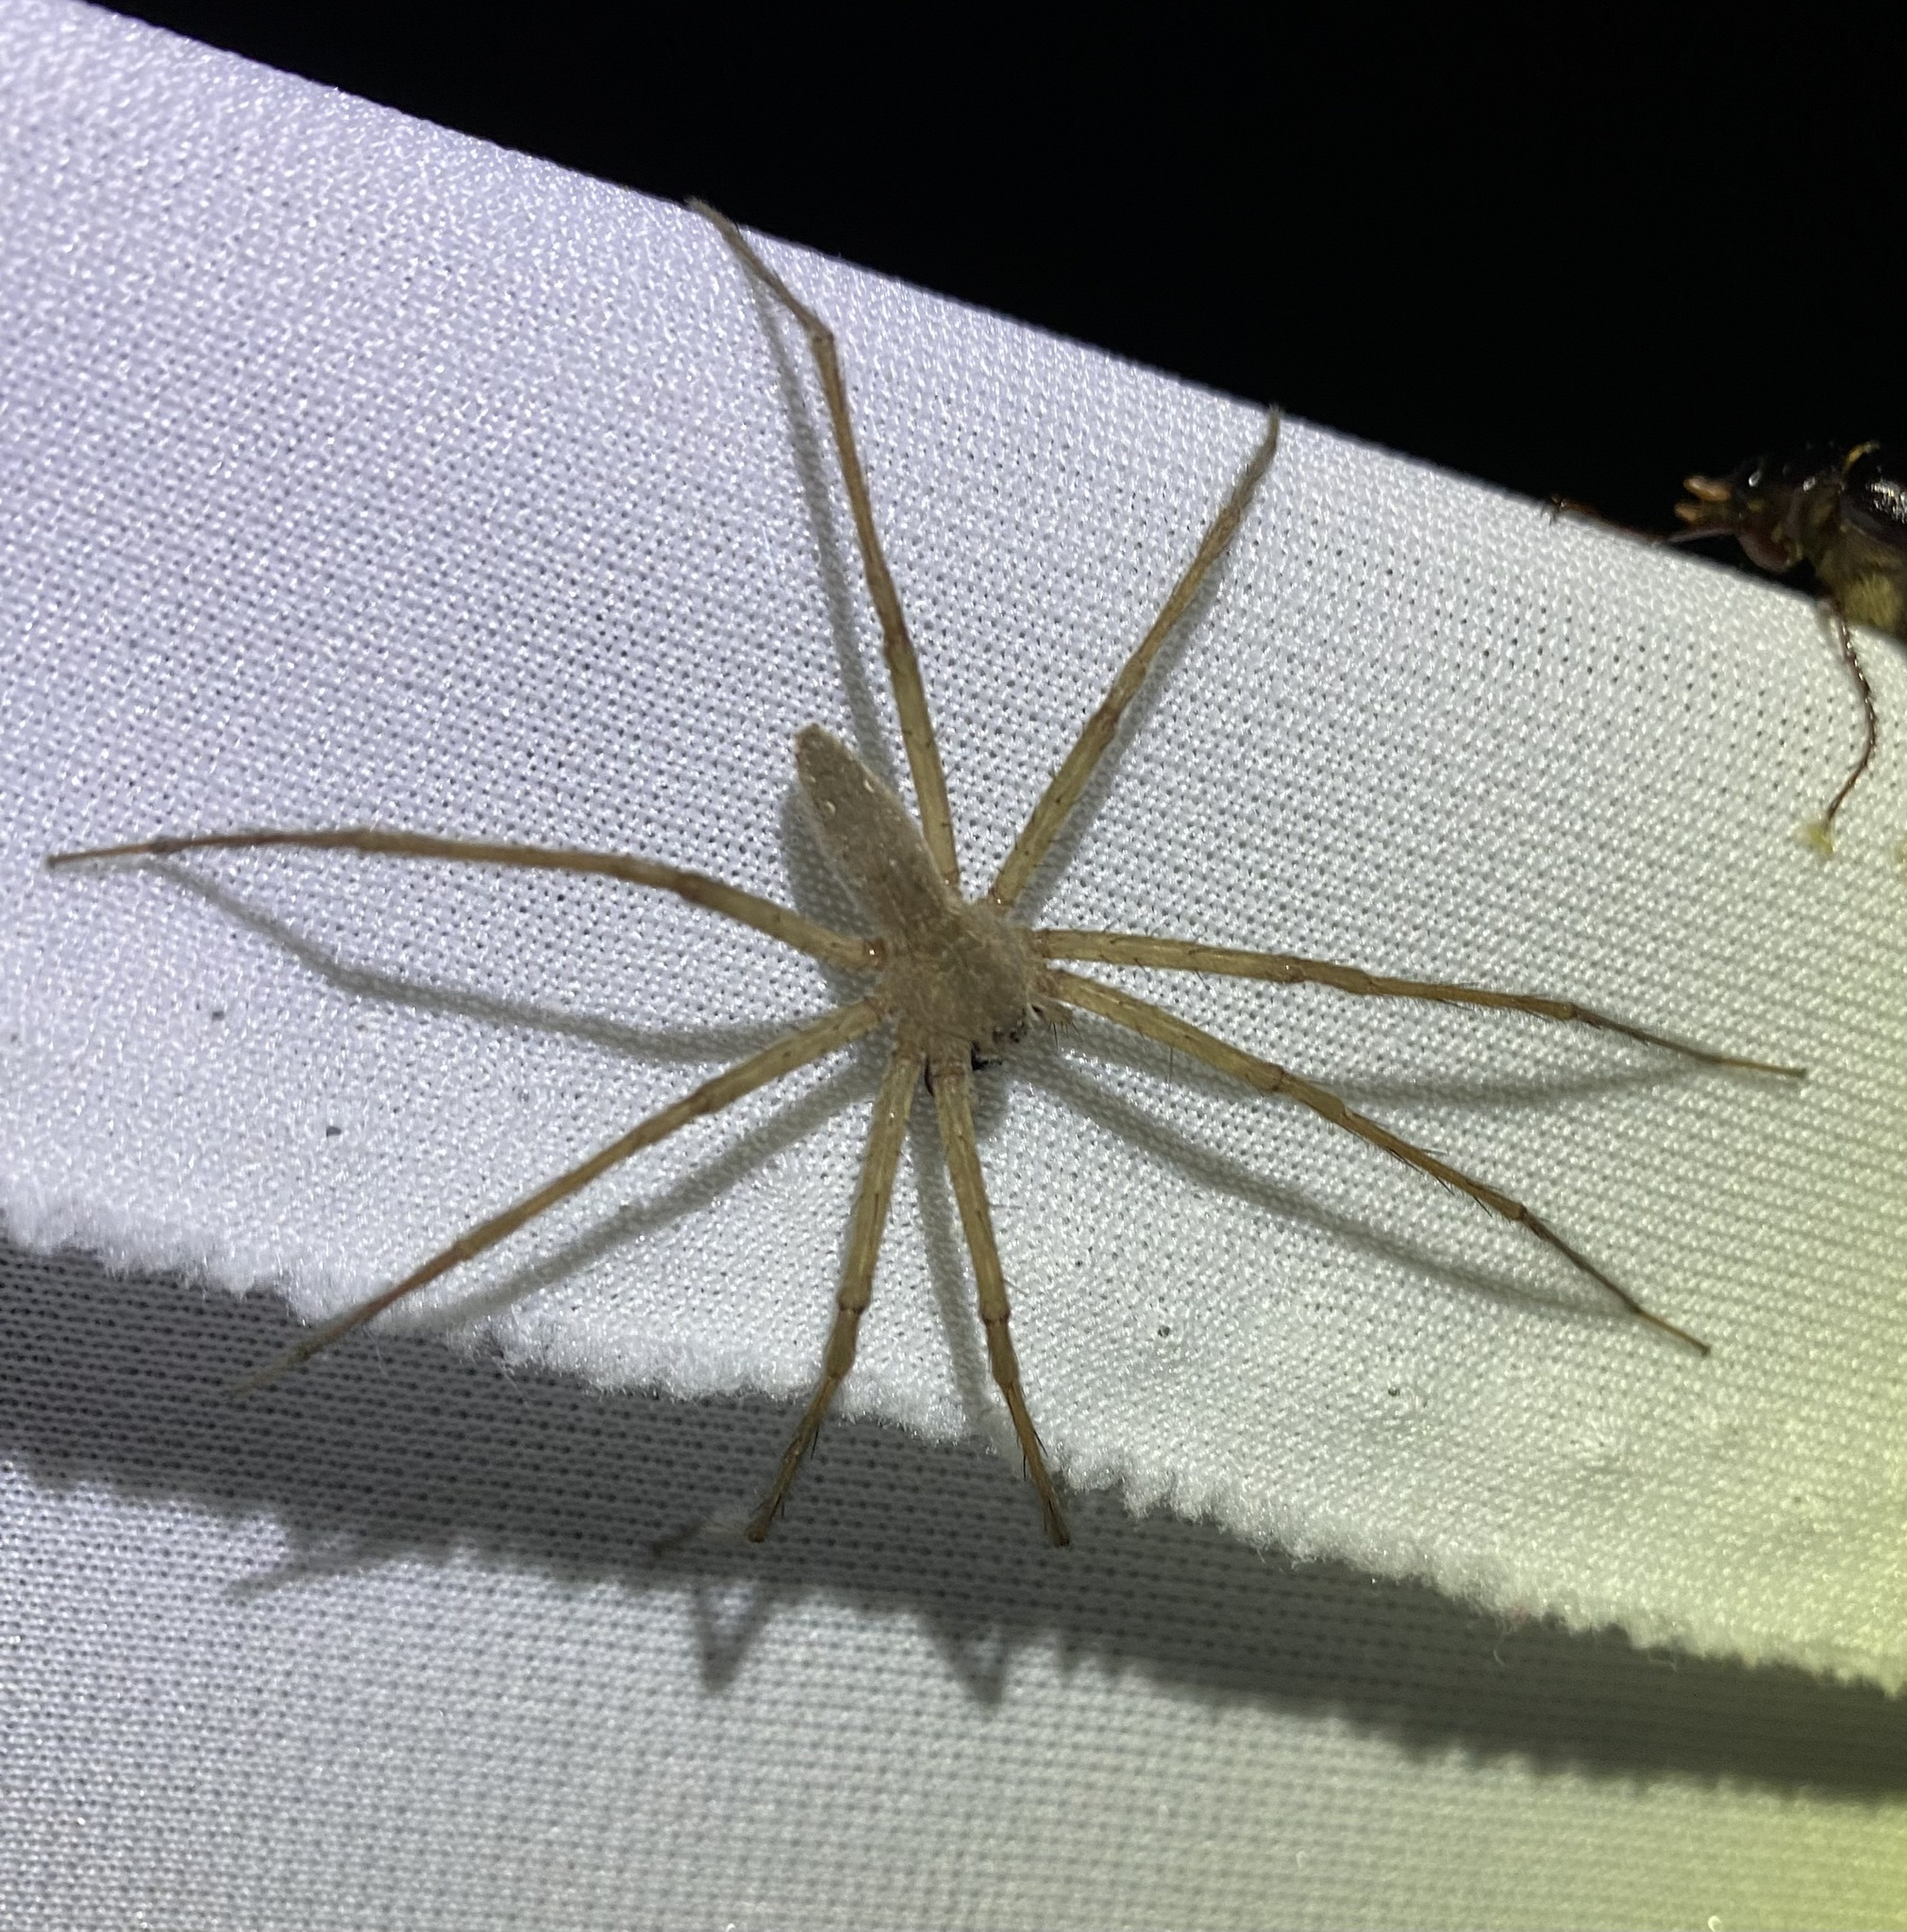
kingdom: Animalia
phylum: Arthropoda
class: Arachnida
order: Araneae
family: Pisauridae
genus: Pisaurina
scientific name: Pisaurina mira
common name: American nursery web spider
